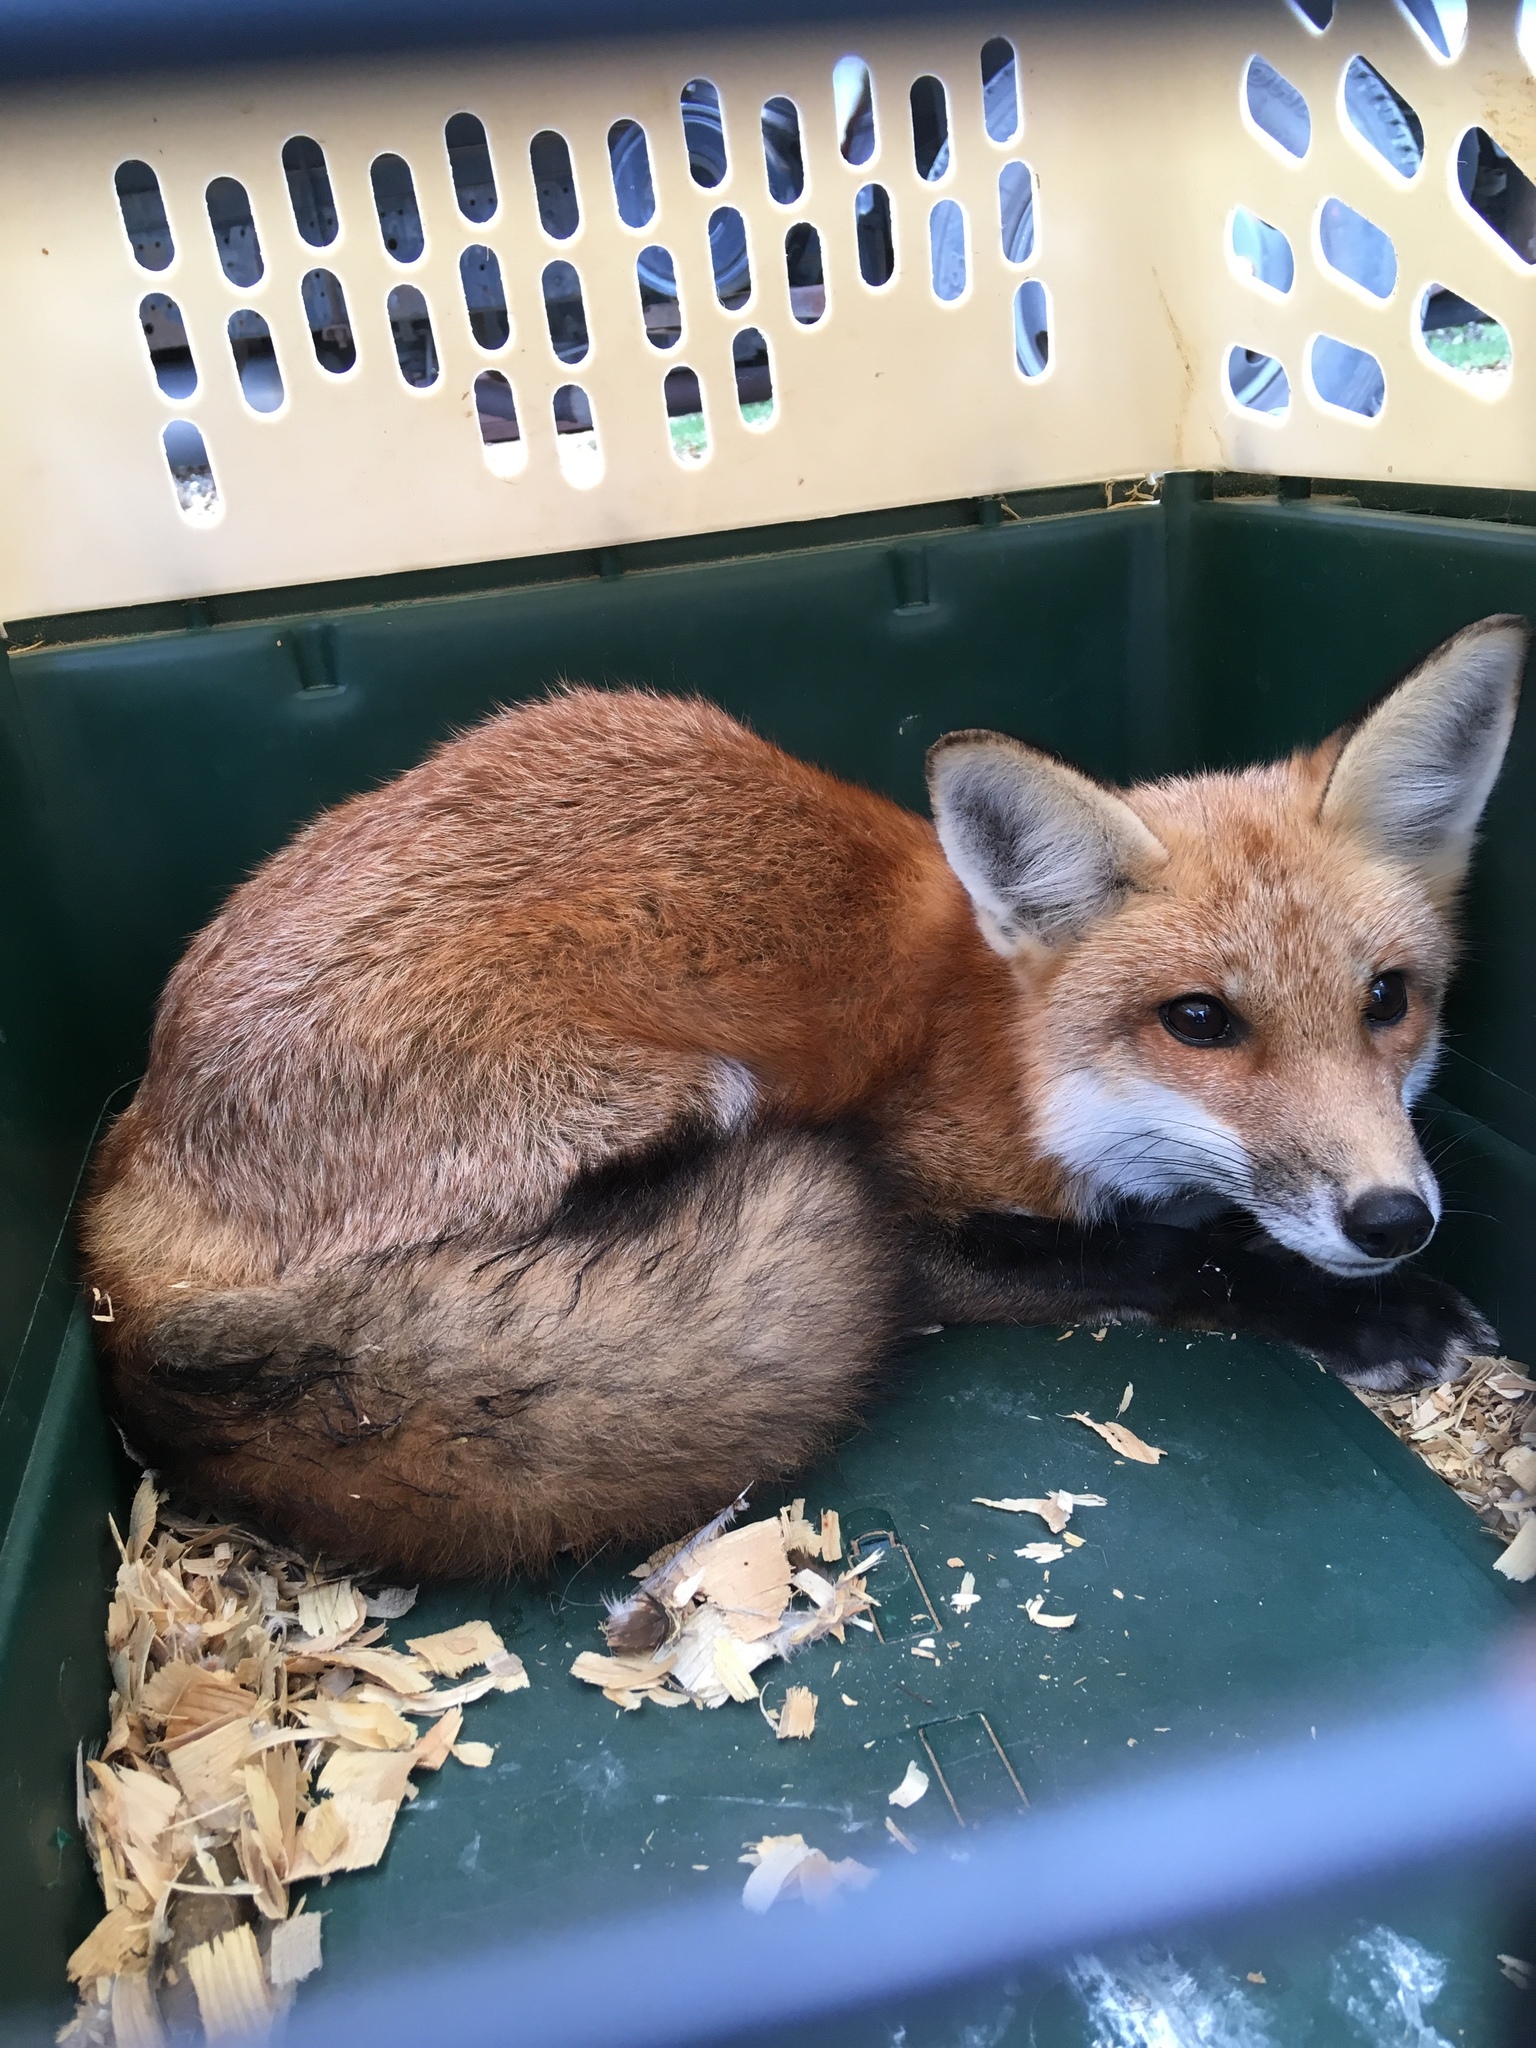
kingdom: Animalia
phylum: Chordata
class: Mammalia
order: Carnivora
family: Canidae
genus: Vulpes
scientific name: Vulpes vulpes
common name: Red fox
